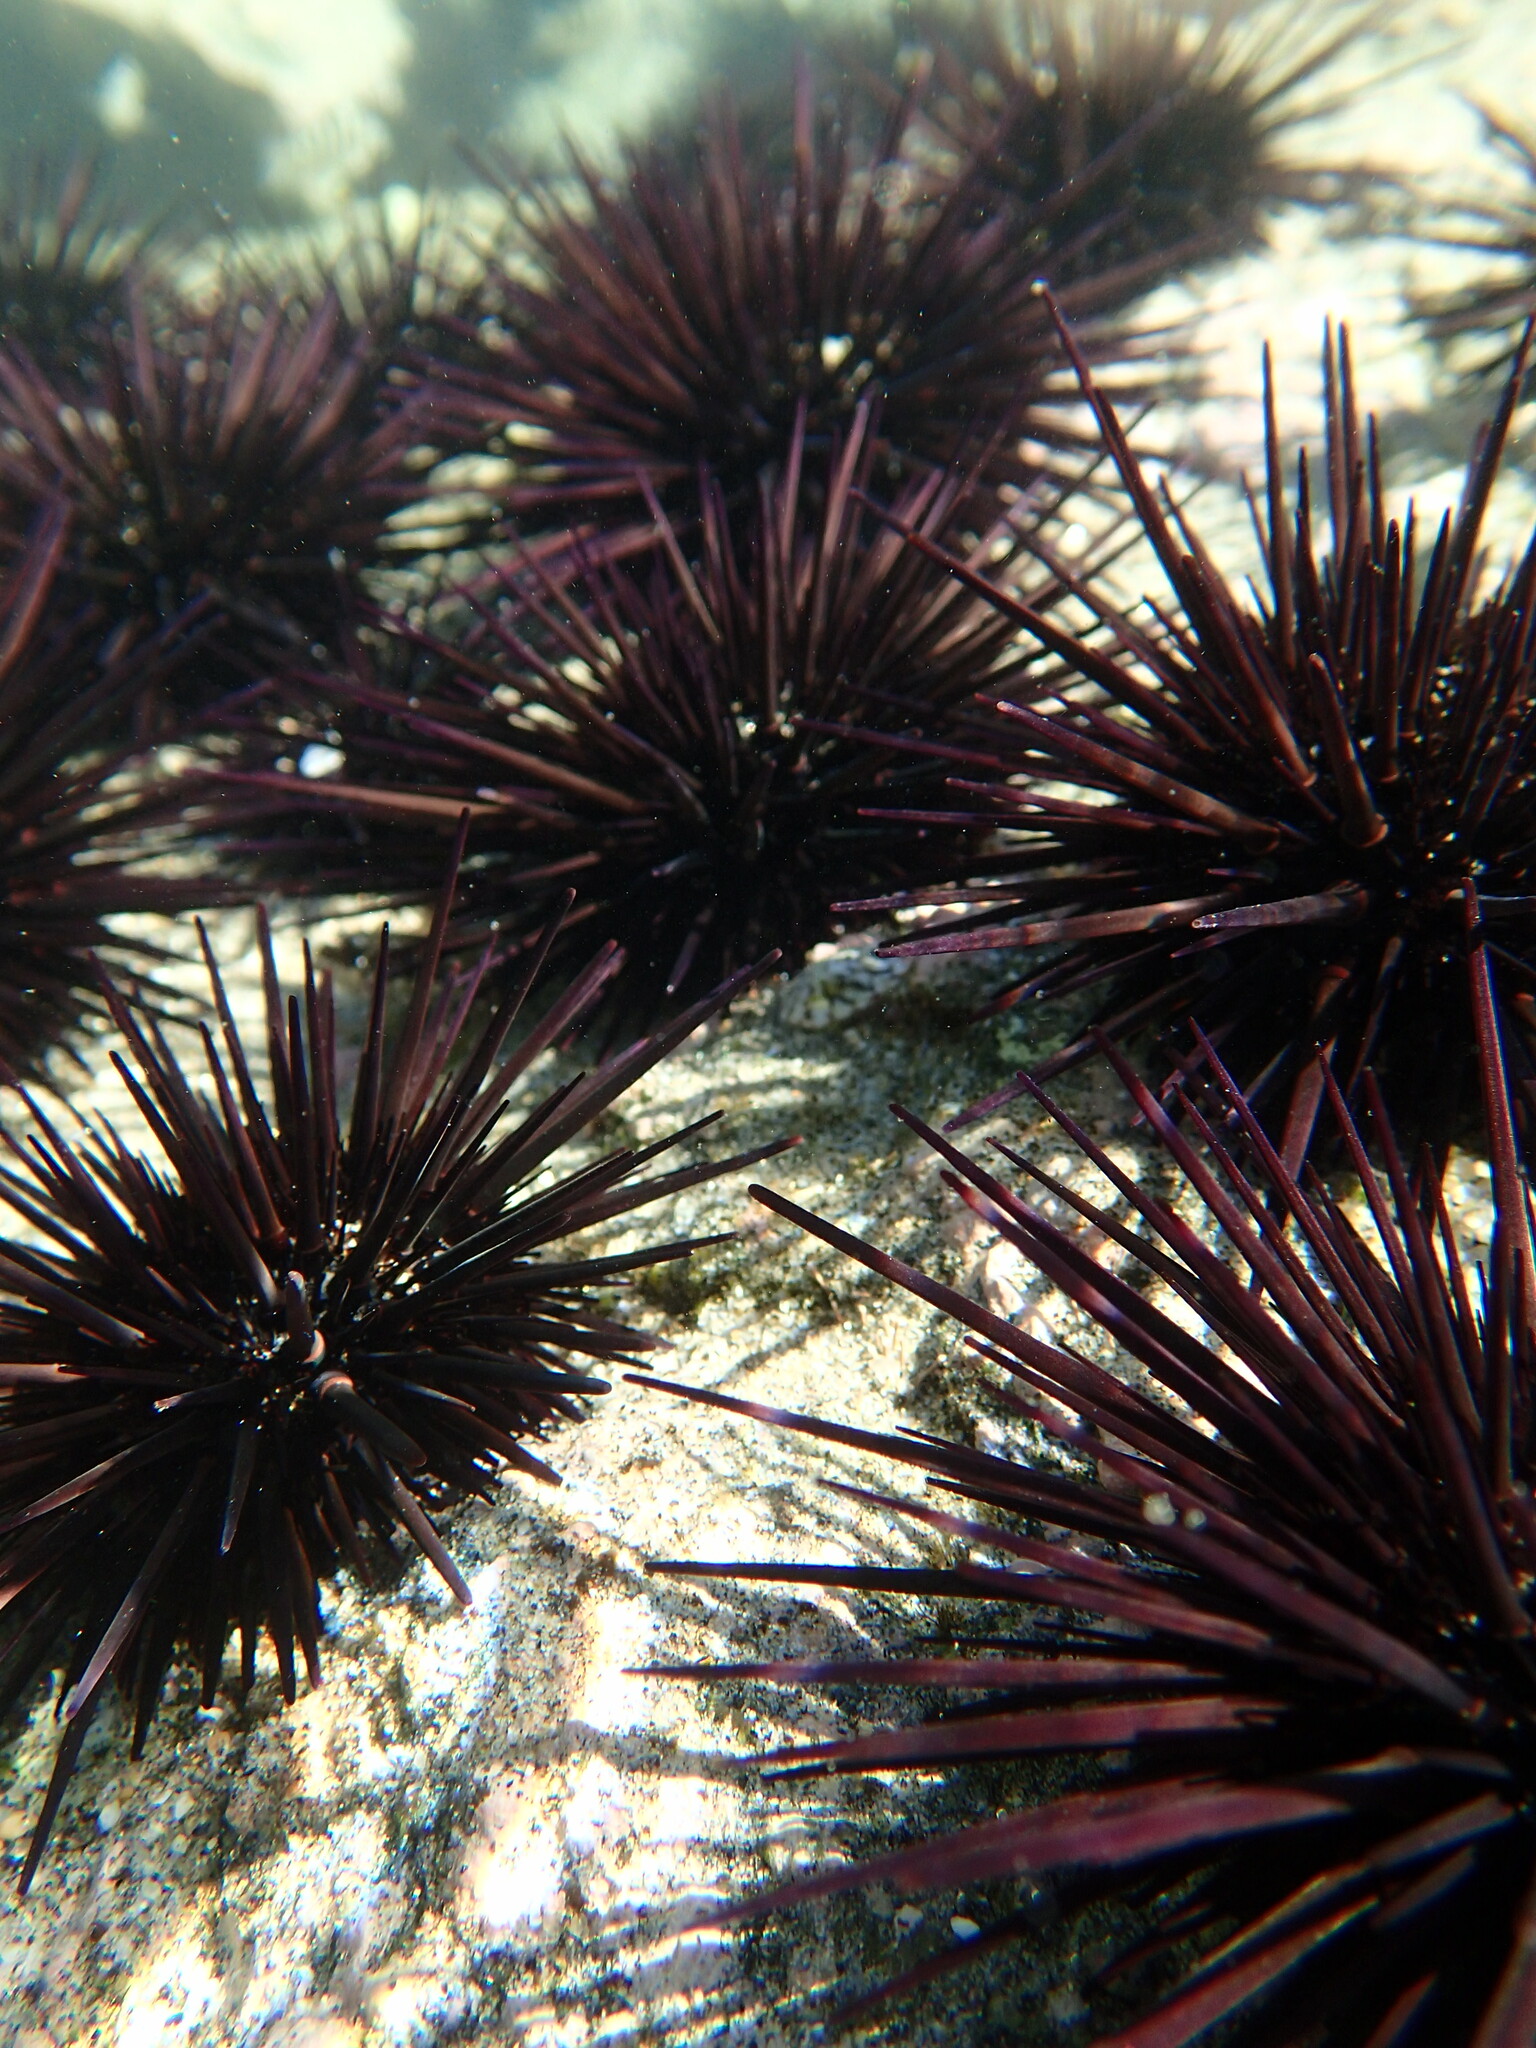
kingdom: Animalia
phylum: Echinodermata
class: Echinoidea
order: Camarodonta
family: Echinometridae
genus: Echinometra
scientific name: Echinometra vanbrunti
